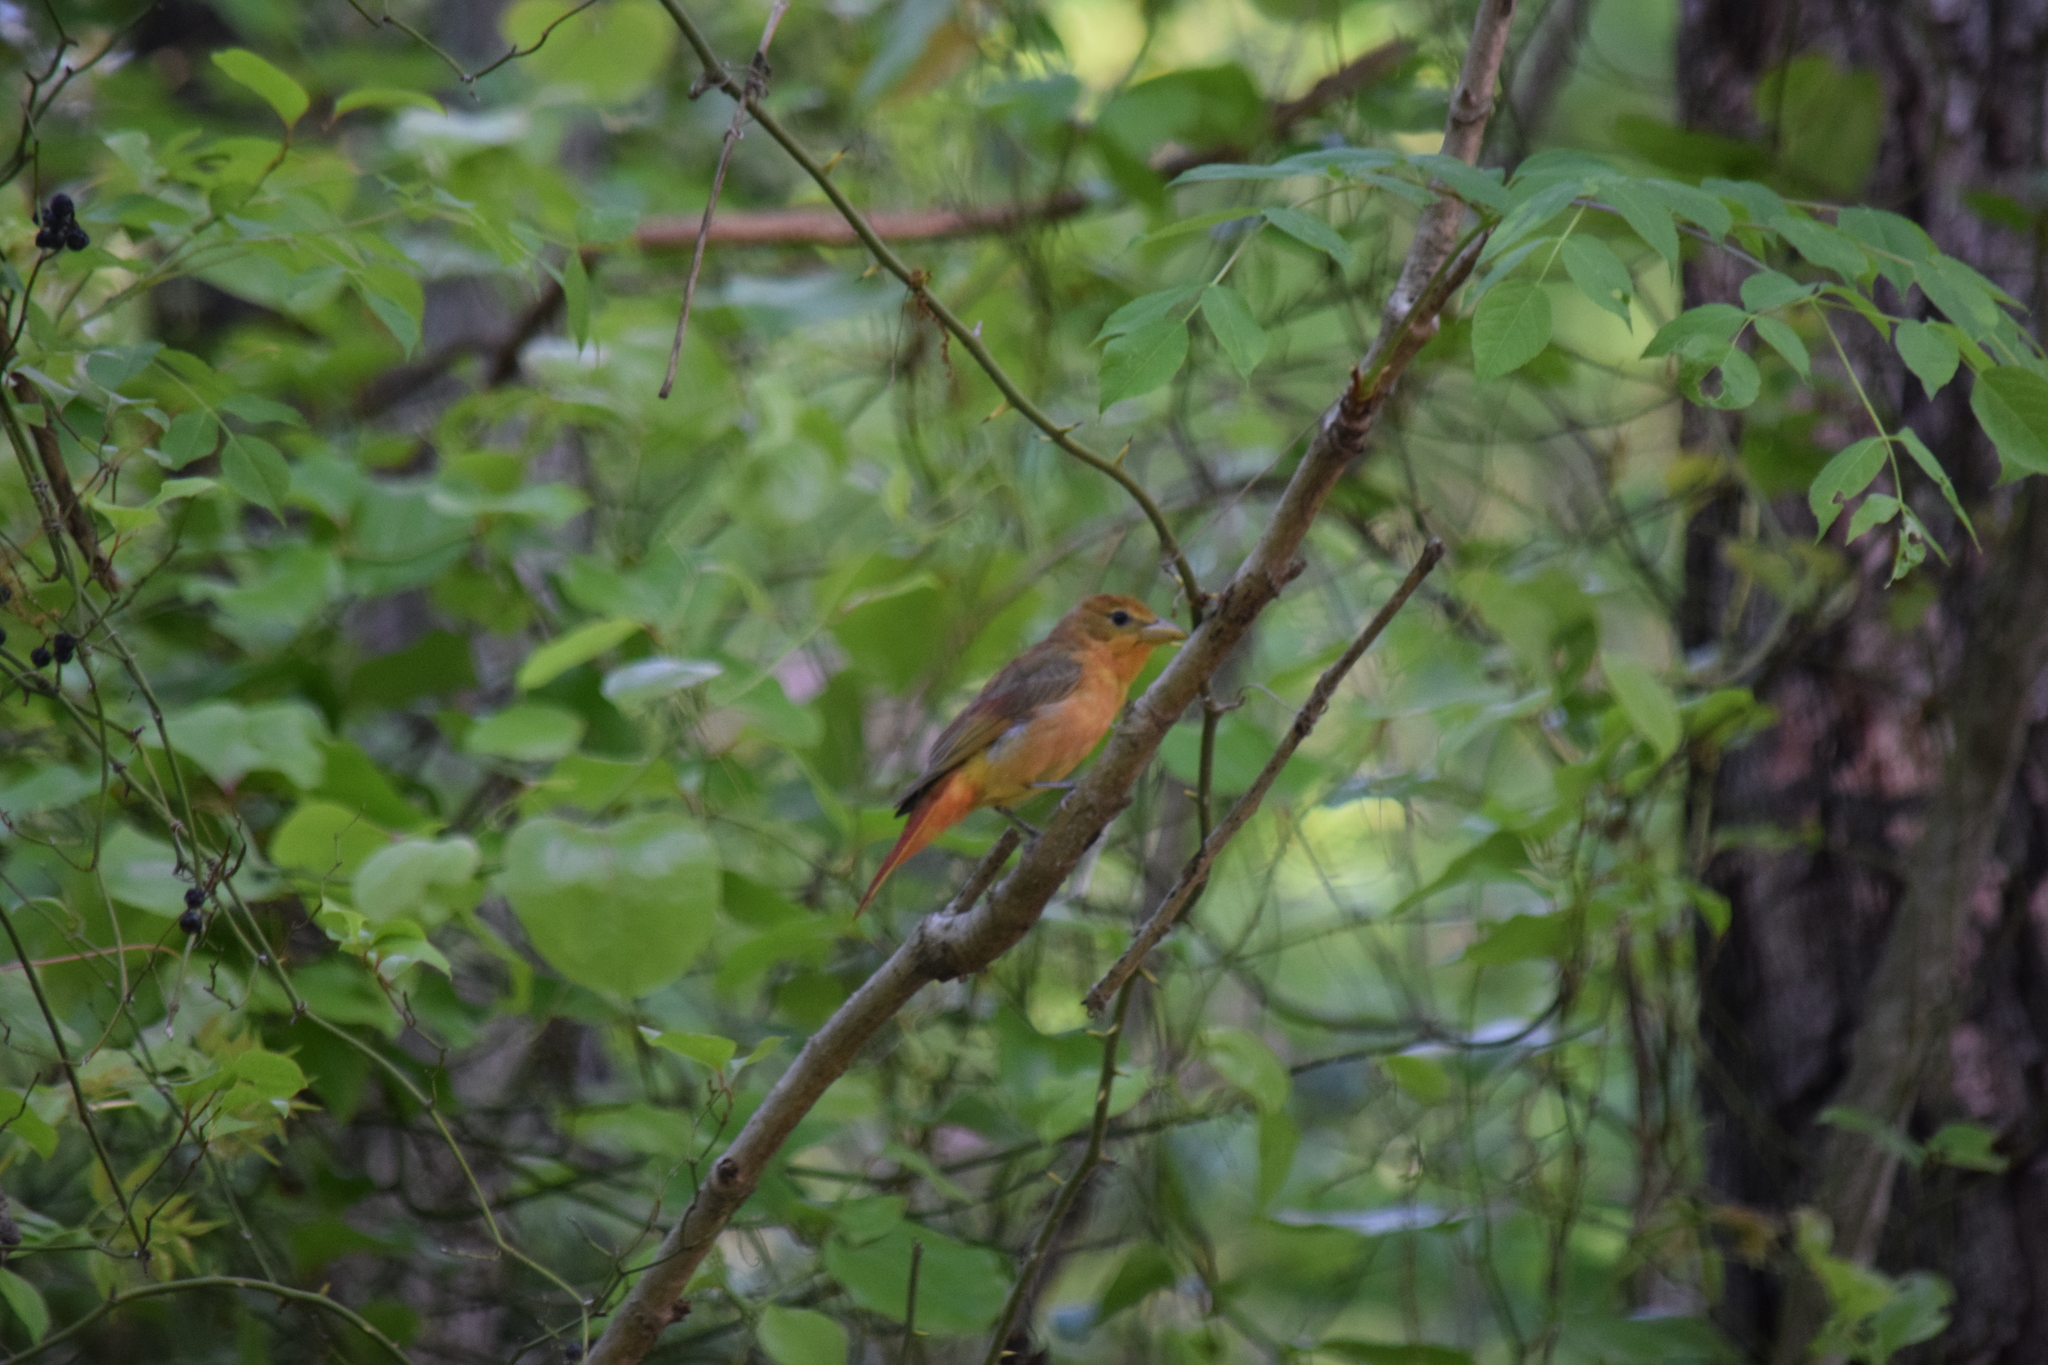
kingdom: Animalia
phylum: Chordata
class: Aves
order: Passeriformes
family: Cardinalidae
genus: Piranga
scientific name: Piranga rubra
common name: Summer tanager
